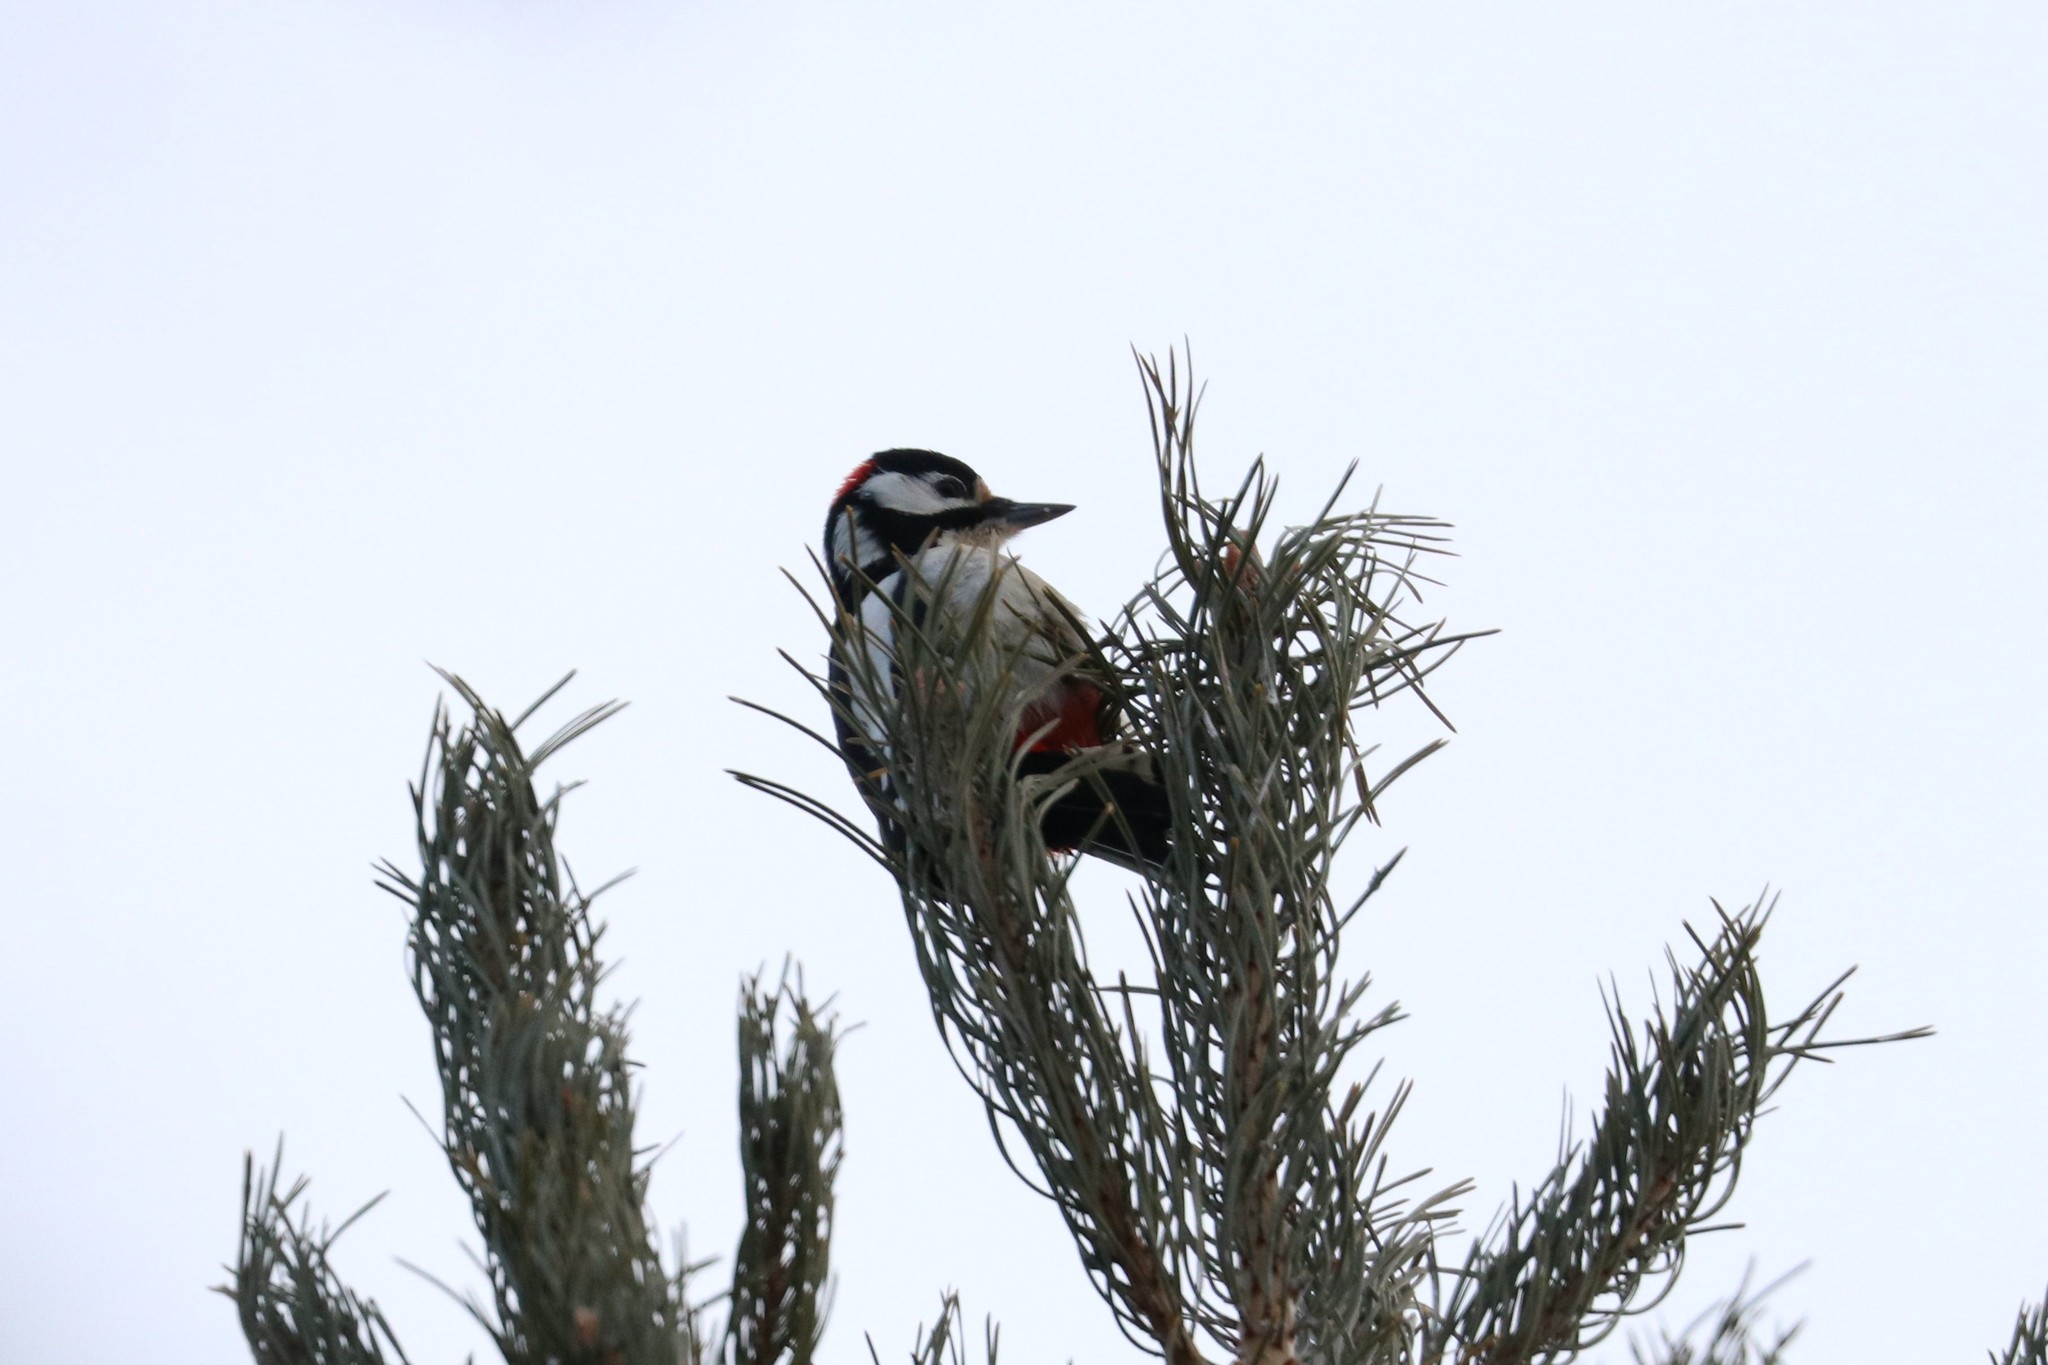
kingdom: Animalia
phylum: Chordata
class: Aves
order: Piciformes
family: Picidae
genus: Dendrocopos
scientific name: Dendrocopos major
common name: Great spotted woodpecker
